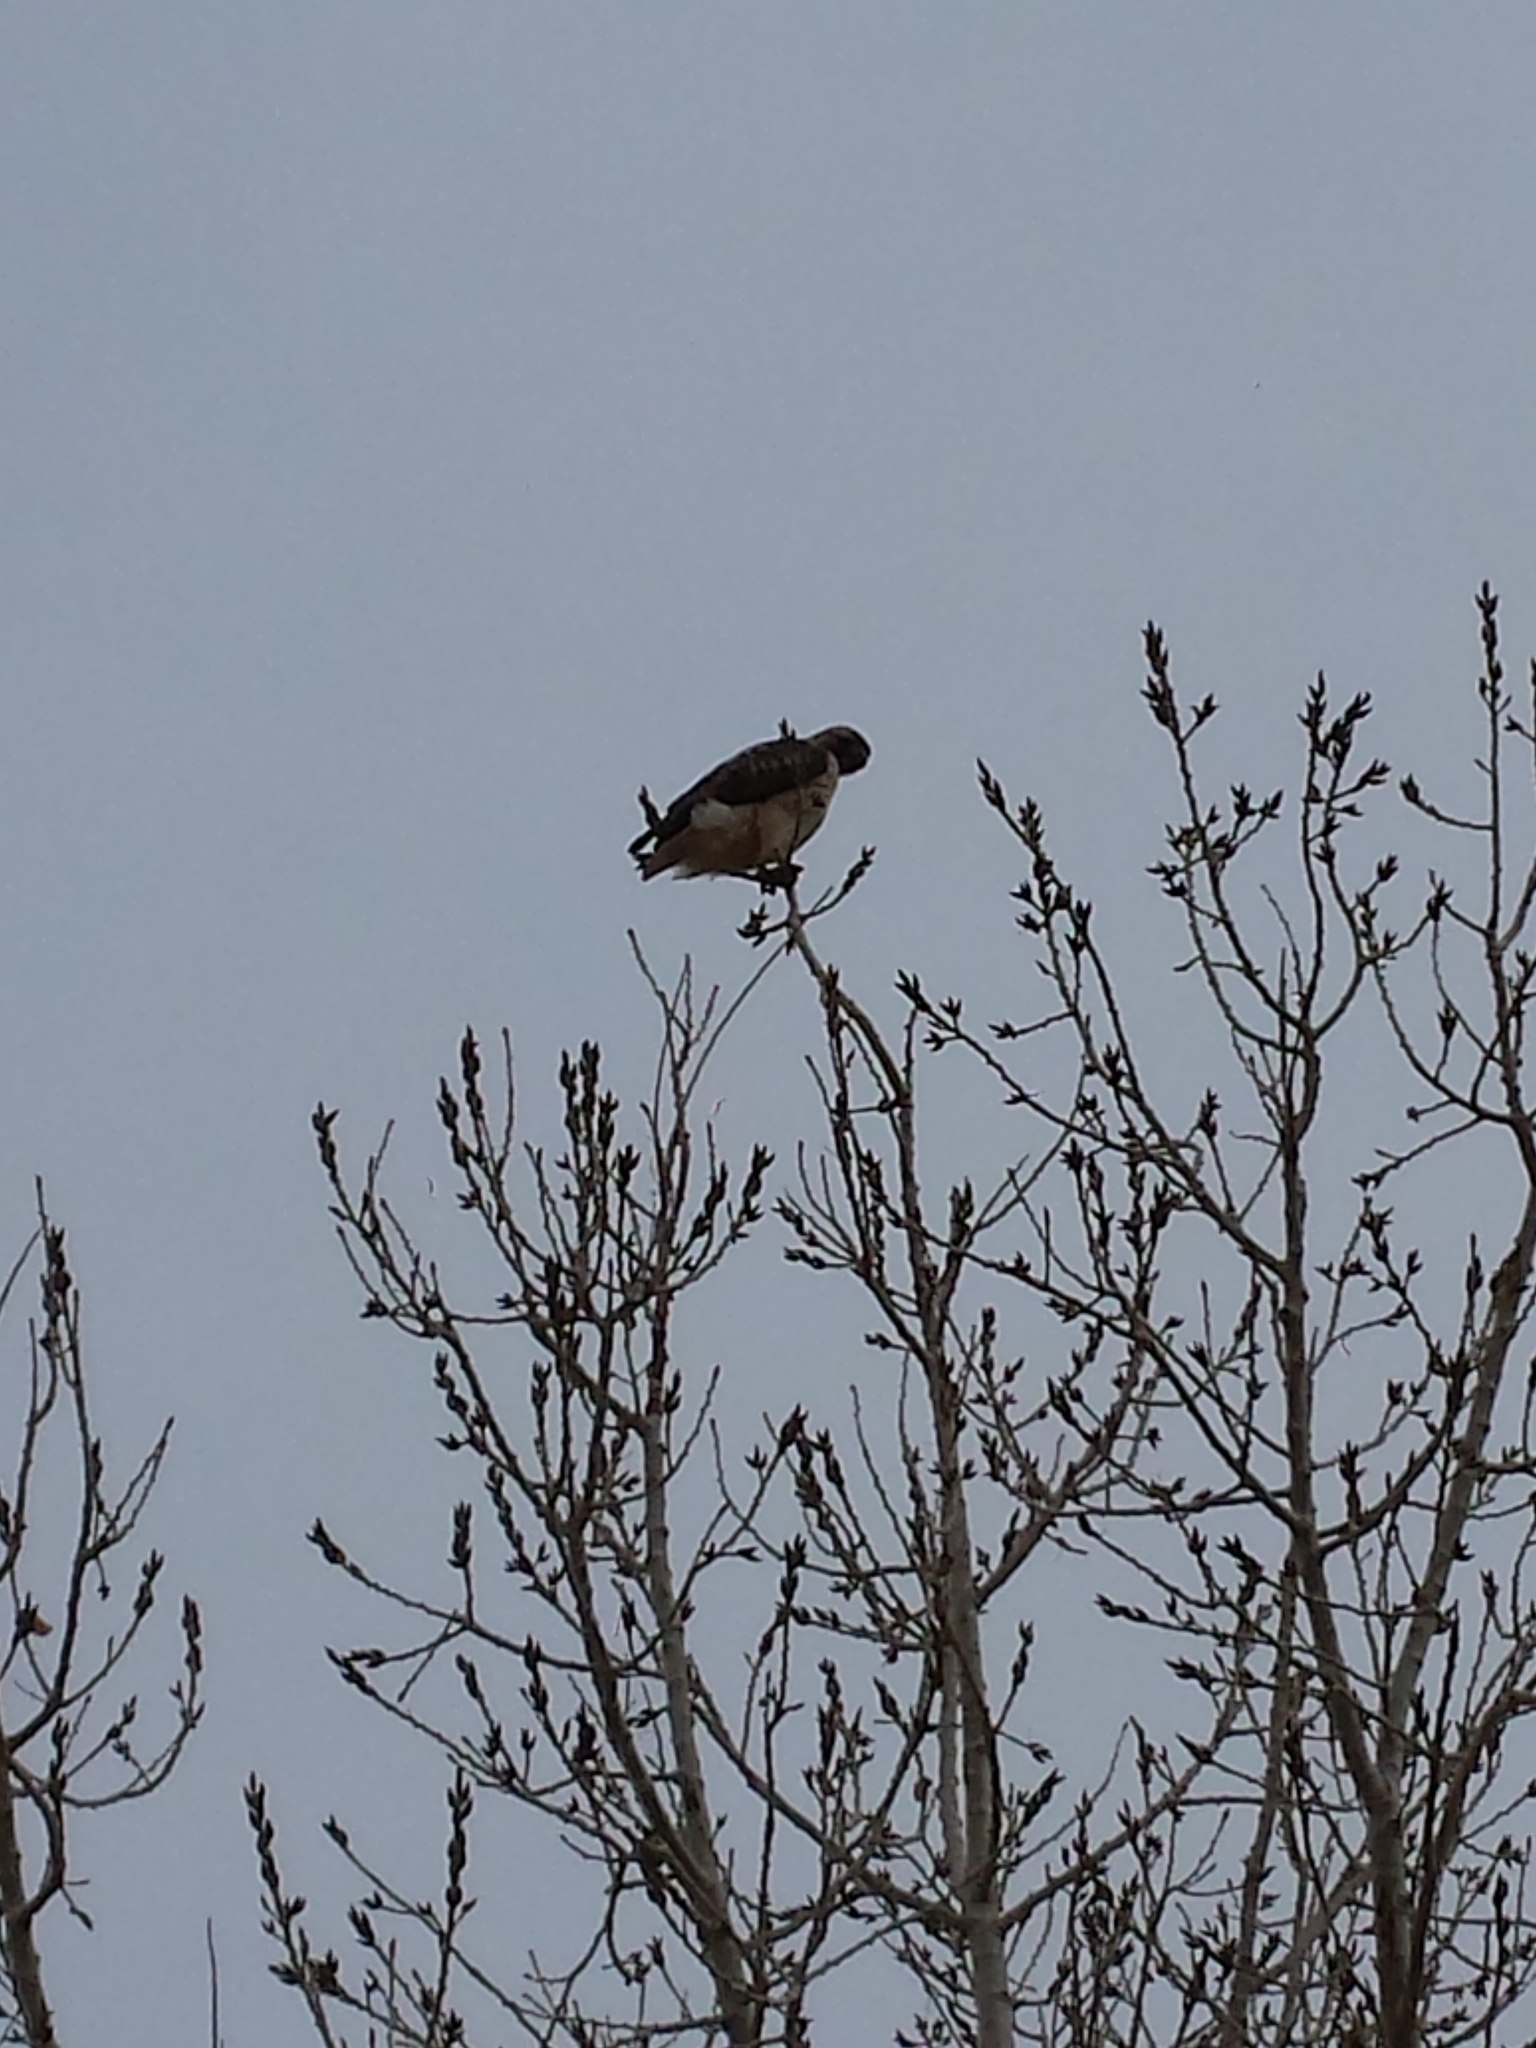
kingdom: Animalia
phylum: Chordata
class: Aves
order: Accipitriformes
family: Accipitridae
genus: Buteo
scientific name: Buteo jamaicensis
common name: Red-tailed hawk
